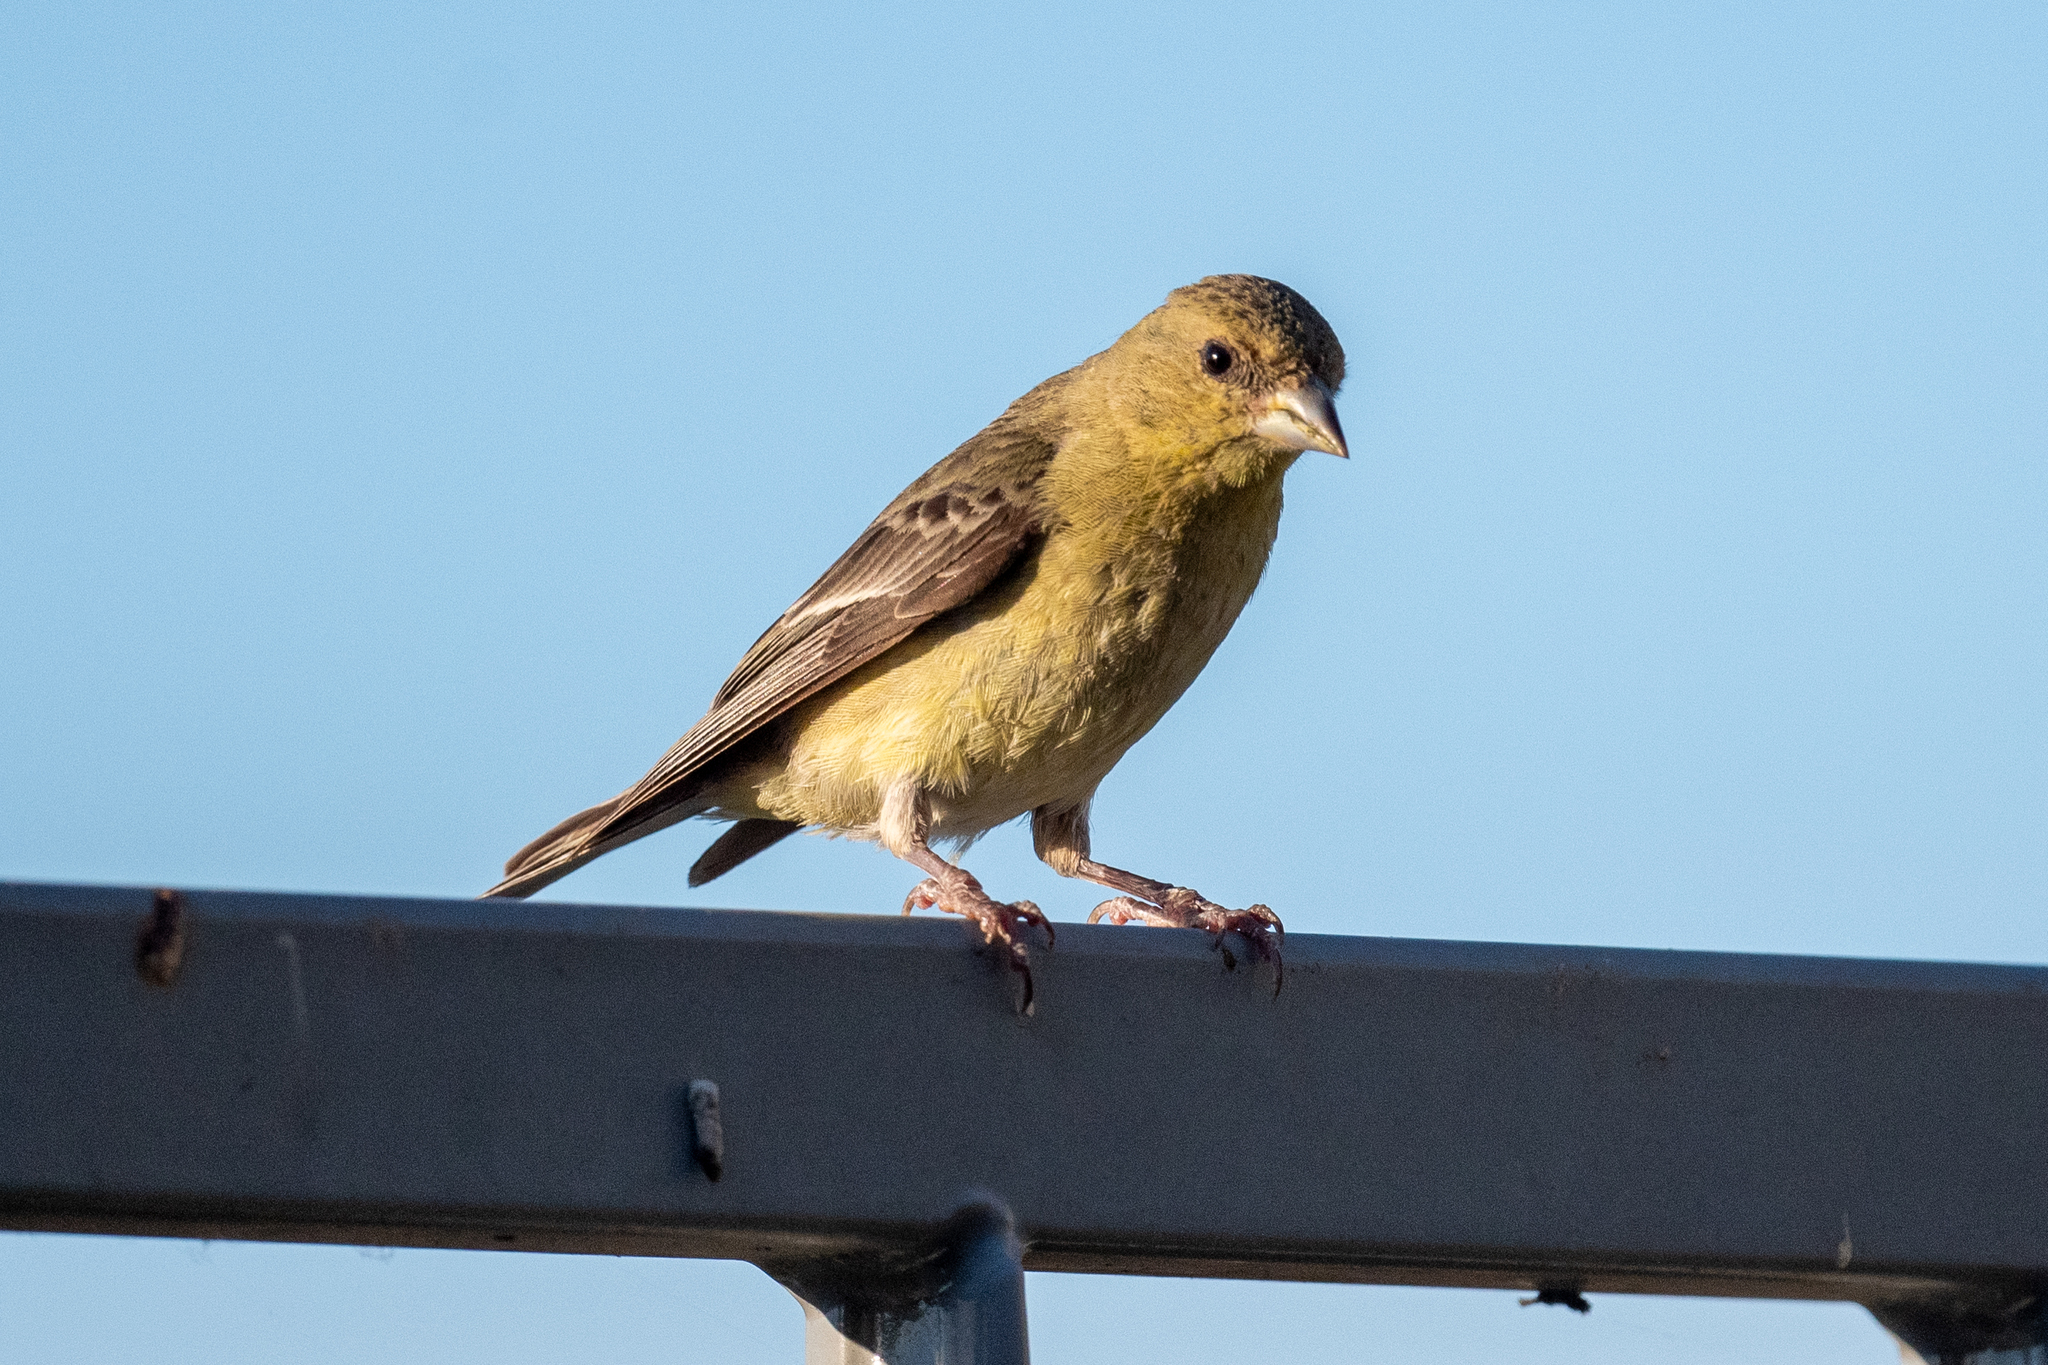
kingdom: Animalia
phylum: Chordata
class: Aves
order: Passeriformes
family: Fringillidae
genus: Spinus
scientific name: Spinus psaltria
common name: Lesser goldfinch
